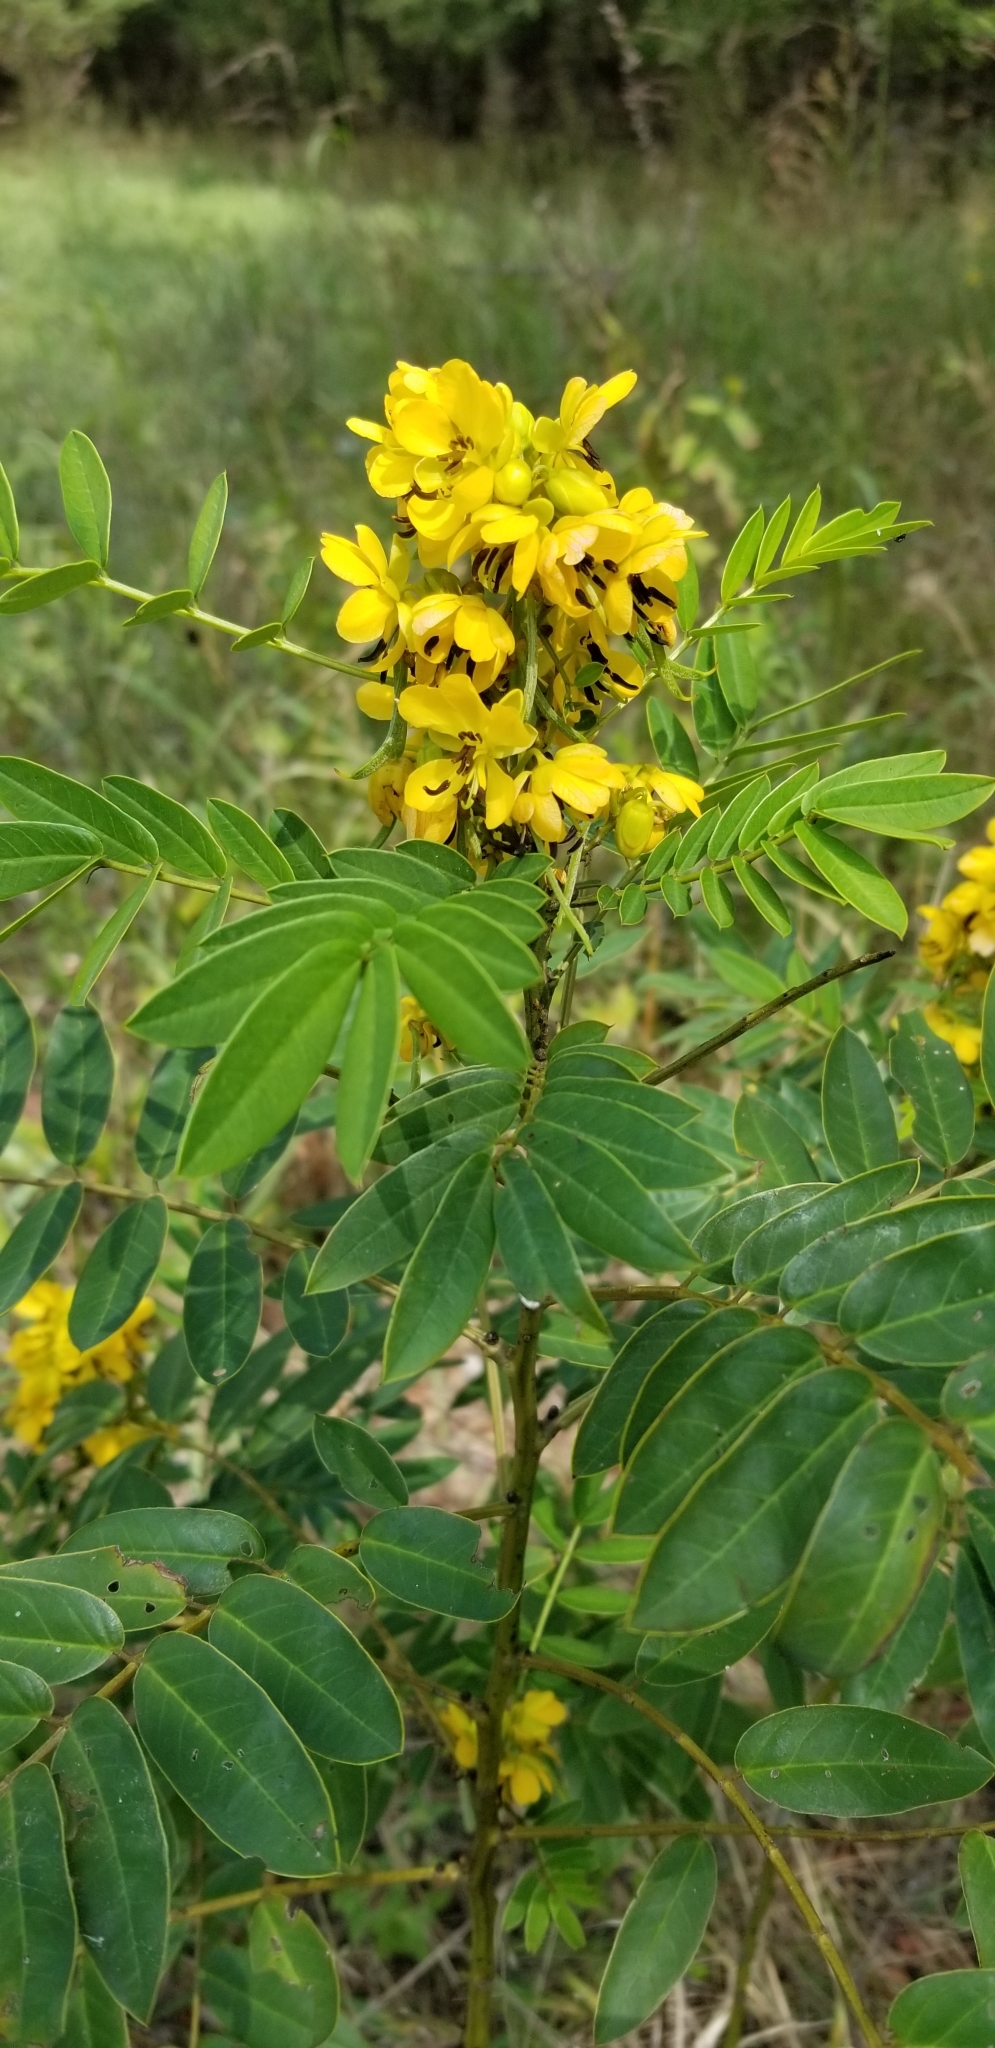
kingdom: Plantae
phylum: Tracheophyta
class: Magnoliopsida
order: Fabales
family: Fabaceae
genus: Senna
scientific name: Senna marilandica
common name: American senna
